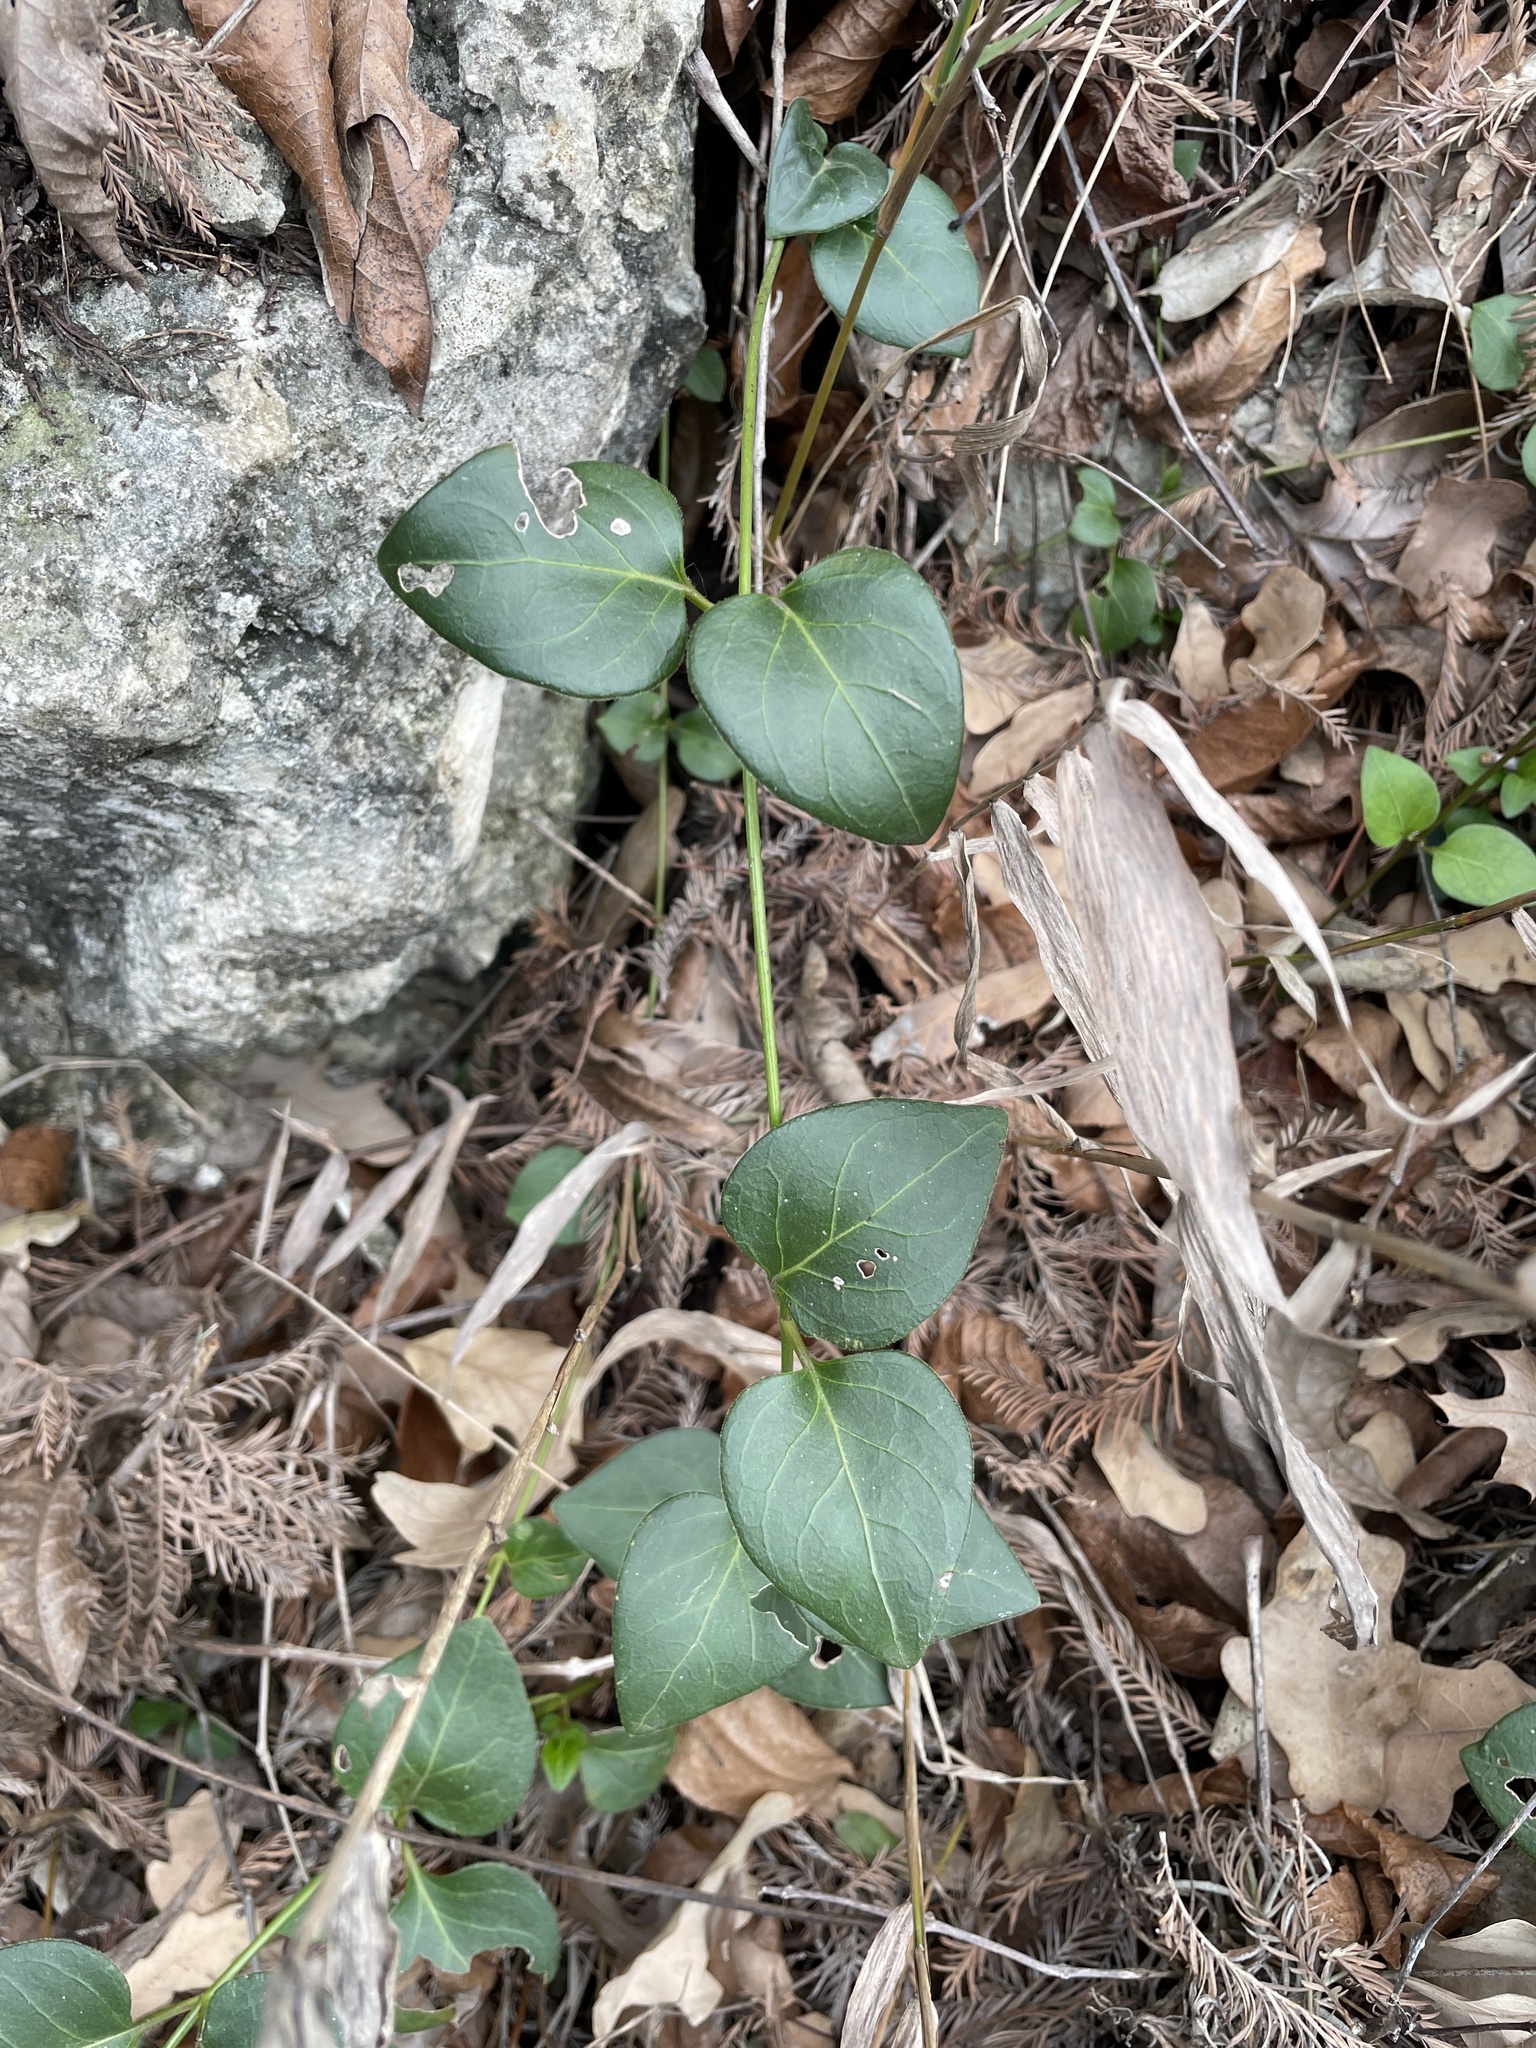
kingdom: Plantae
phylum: Tracheophyta
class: Magnoliopsida
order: Gentianales
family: Apocynaceae
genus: Vinca
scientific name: Vinca major
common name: Greater periwinkle
